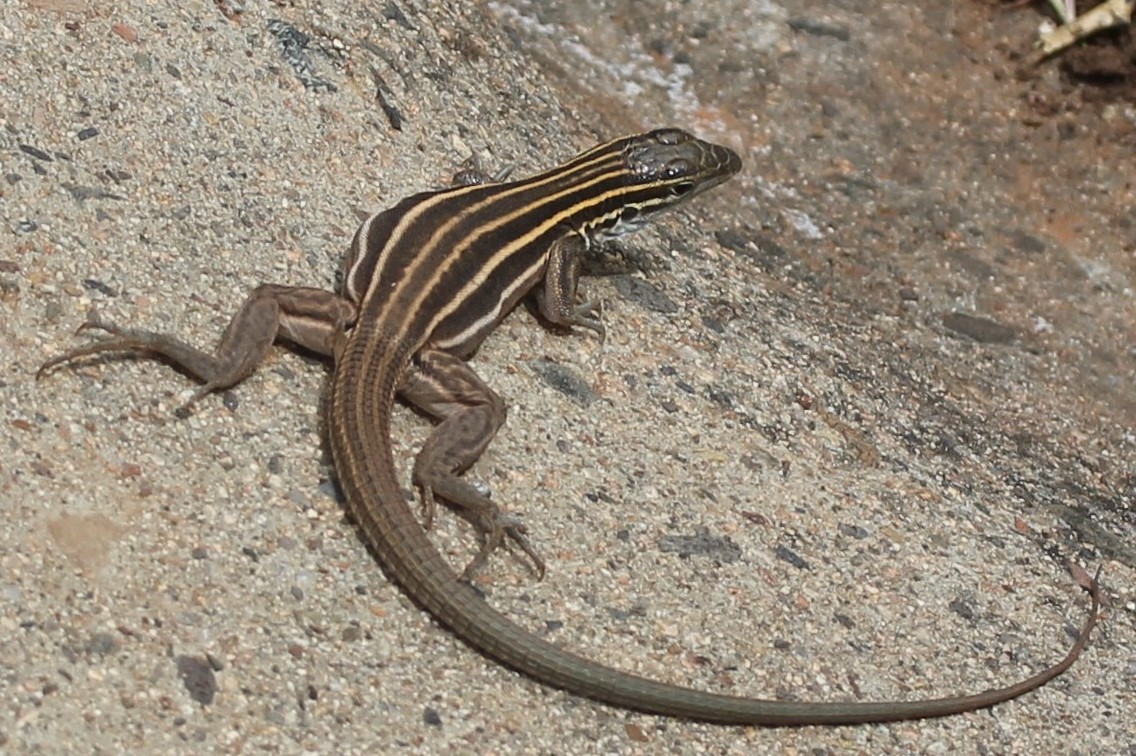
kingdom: Animalia
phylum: Chordata
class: Squamata
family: Teiidae
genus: Aspidoscelis
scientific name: Aspidoscelis velox
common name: Plateau striped whiptail
